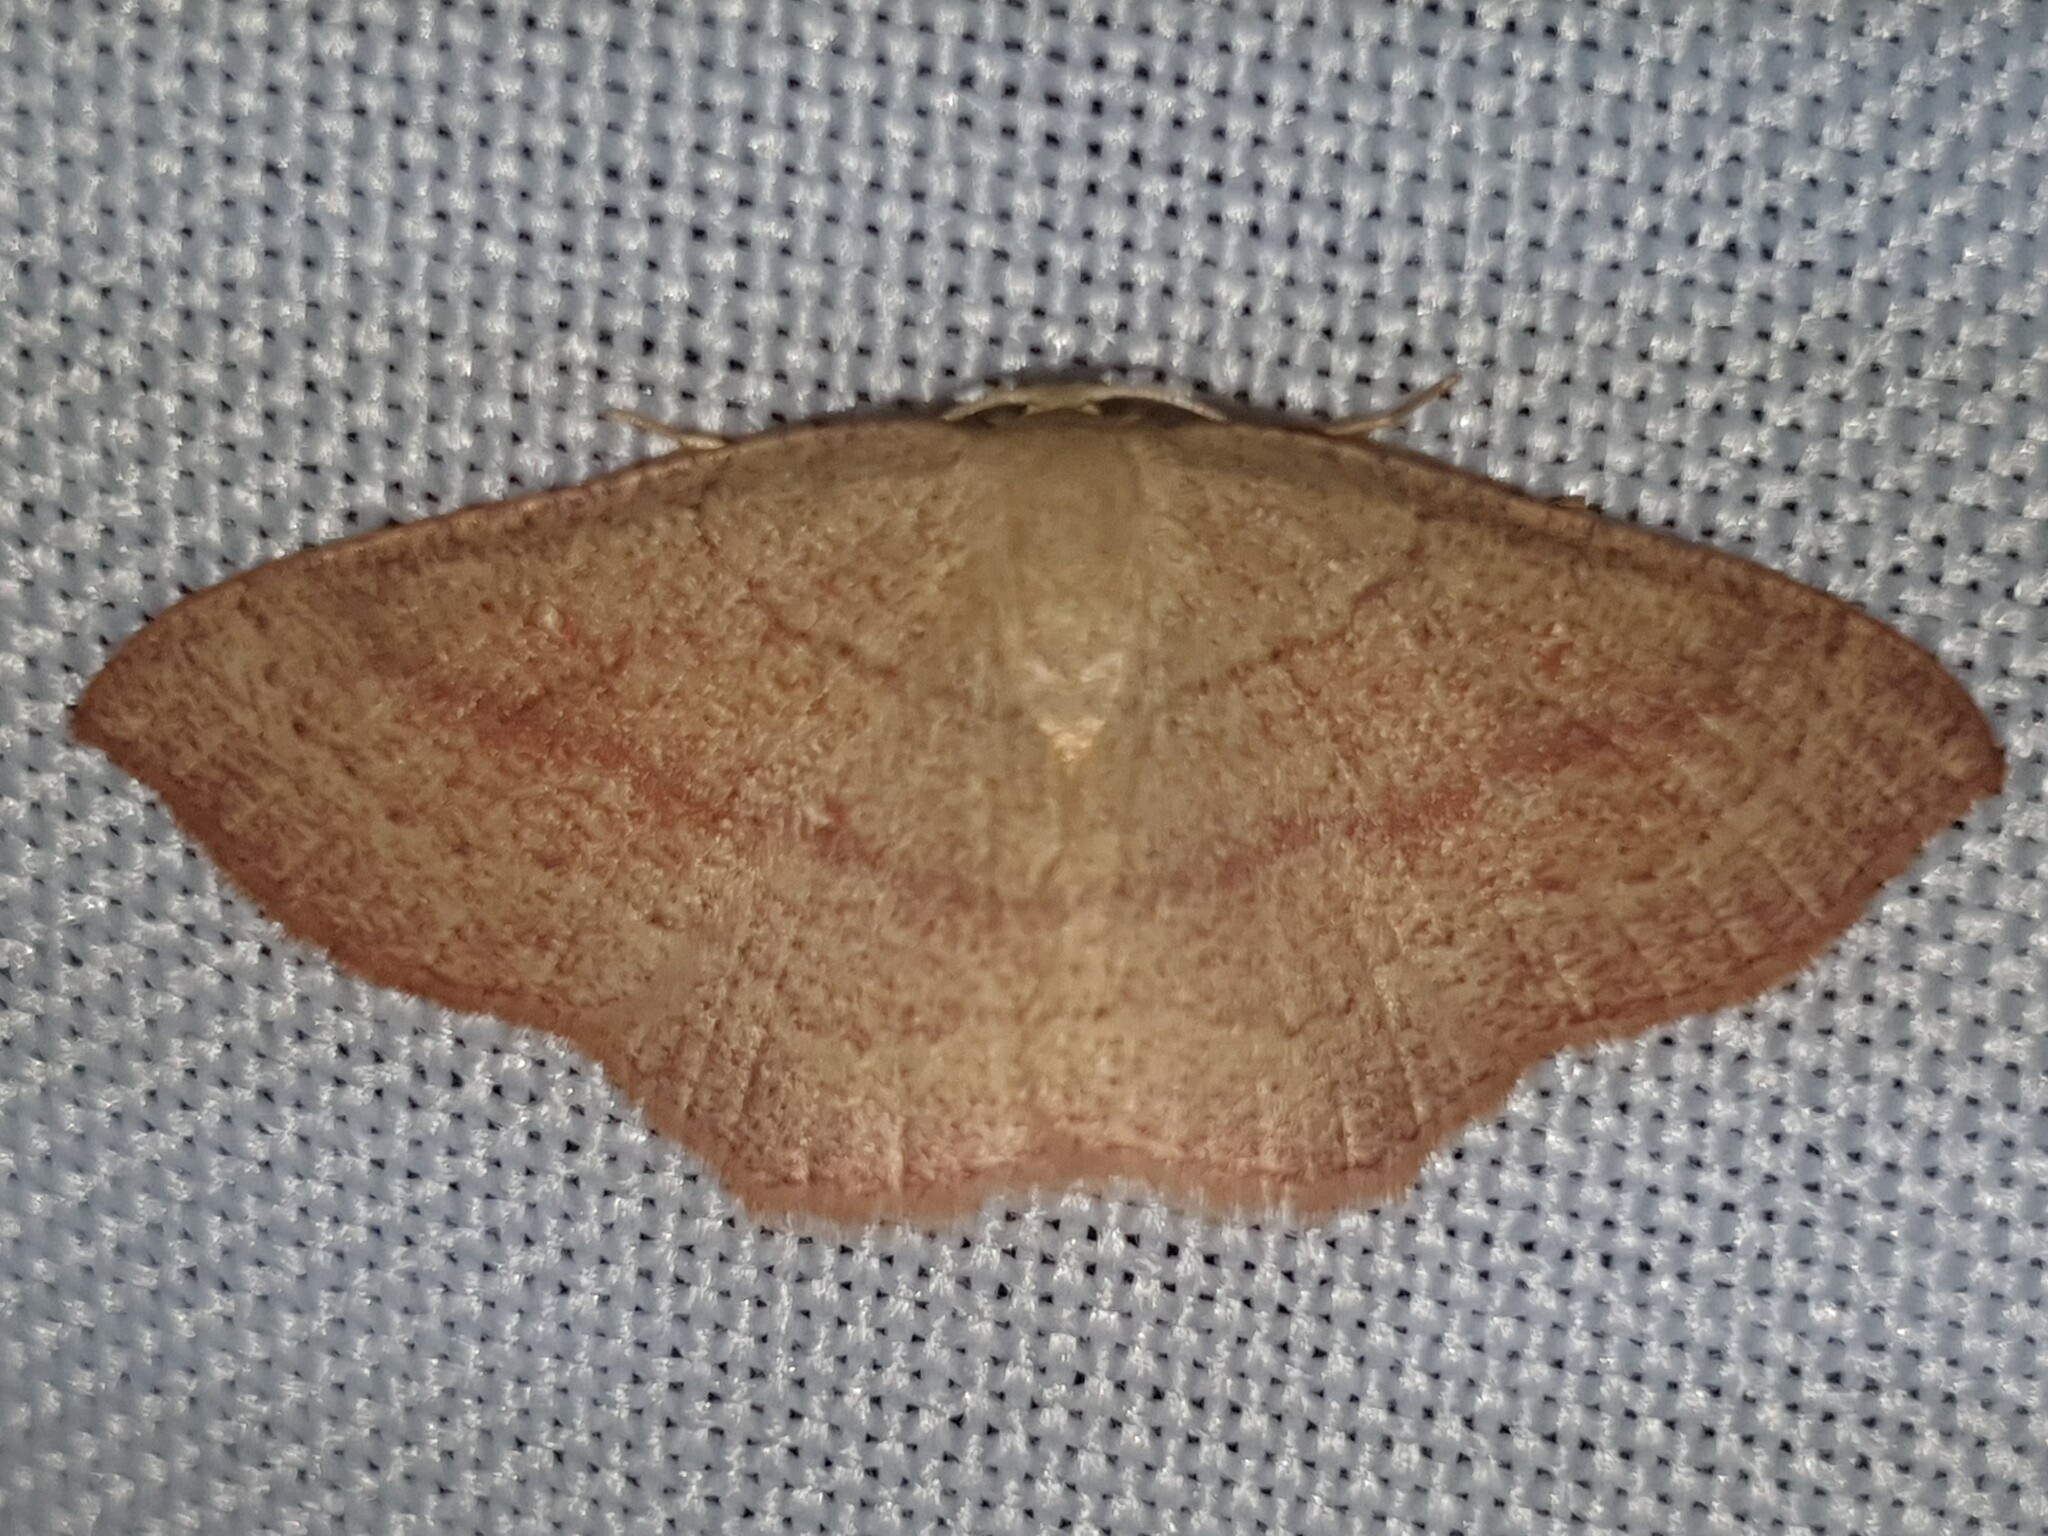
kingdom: Animalia
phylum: Arthropoda
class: Insecta
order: Lepidoptera
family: Geometridae
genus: Cyclophora
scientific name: Cyclophora linearia
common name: Clay triple-lines
